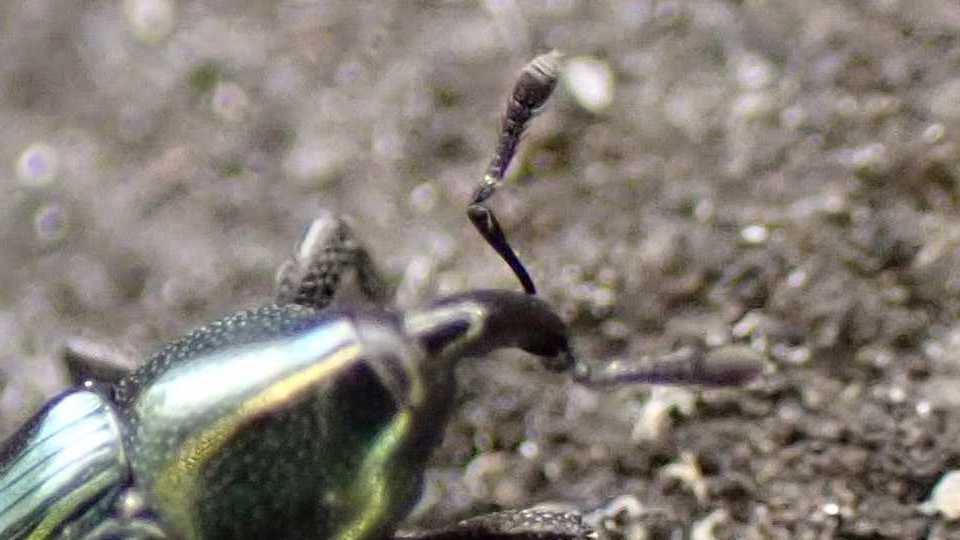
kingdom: Animalia
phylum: Arthropoda
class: Insecta
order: Coleoptera
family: Curculionidae
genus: Aulacobaris
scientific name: Aulacobaris caerulescens
